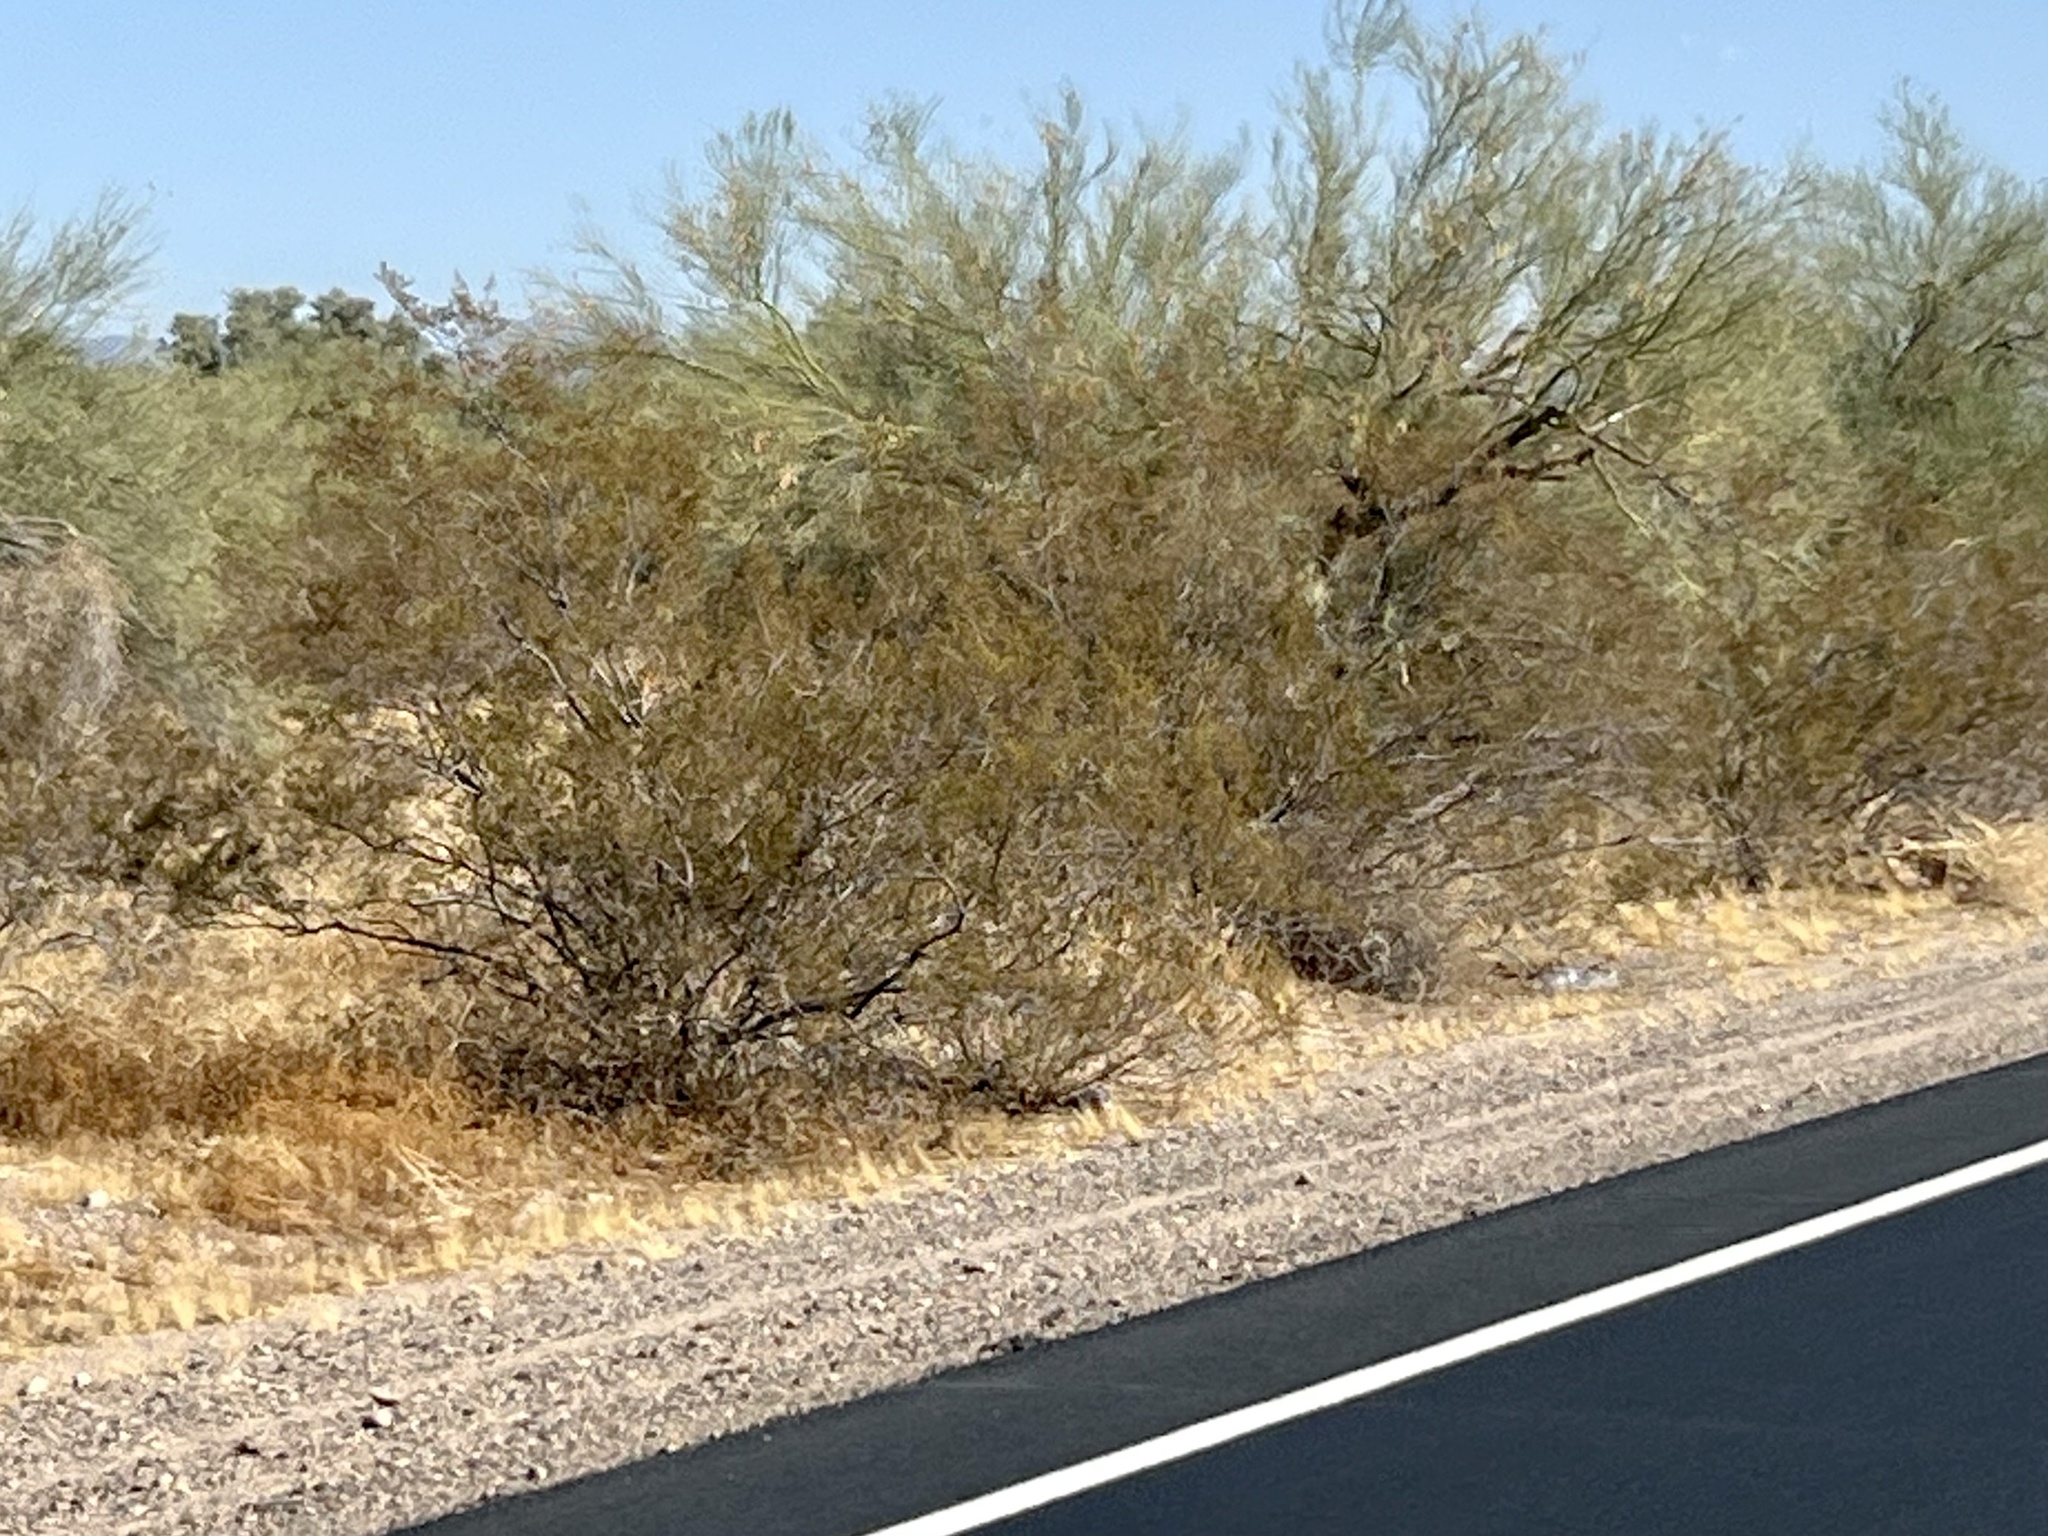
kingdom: Plantae
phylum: Tracheophyta
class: Magnoliopsida
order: Zygophyllales
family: Zygophyllaceae
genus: Larrea
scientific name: Larrea tridentata
